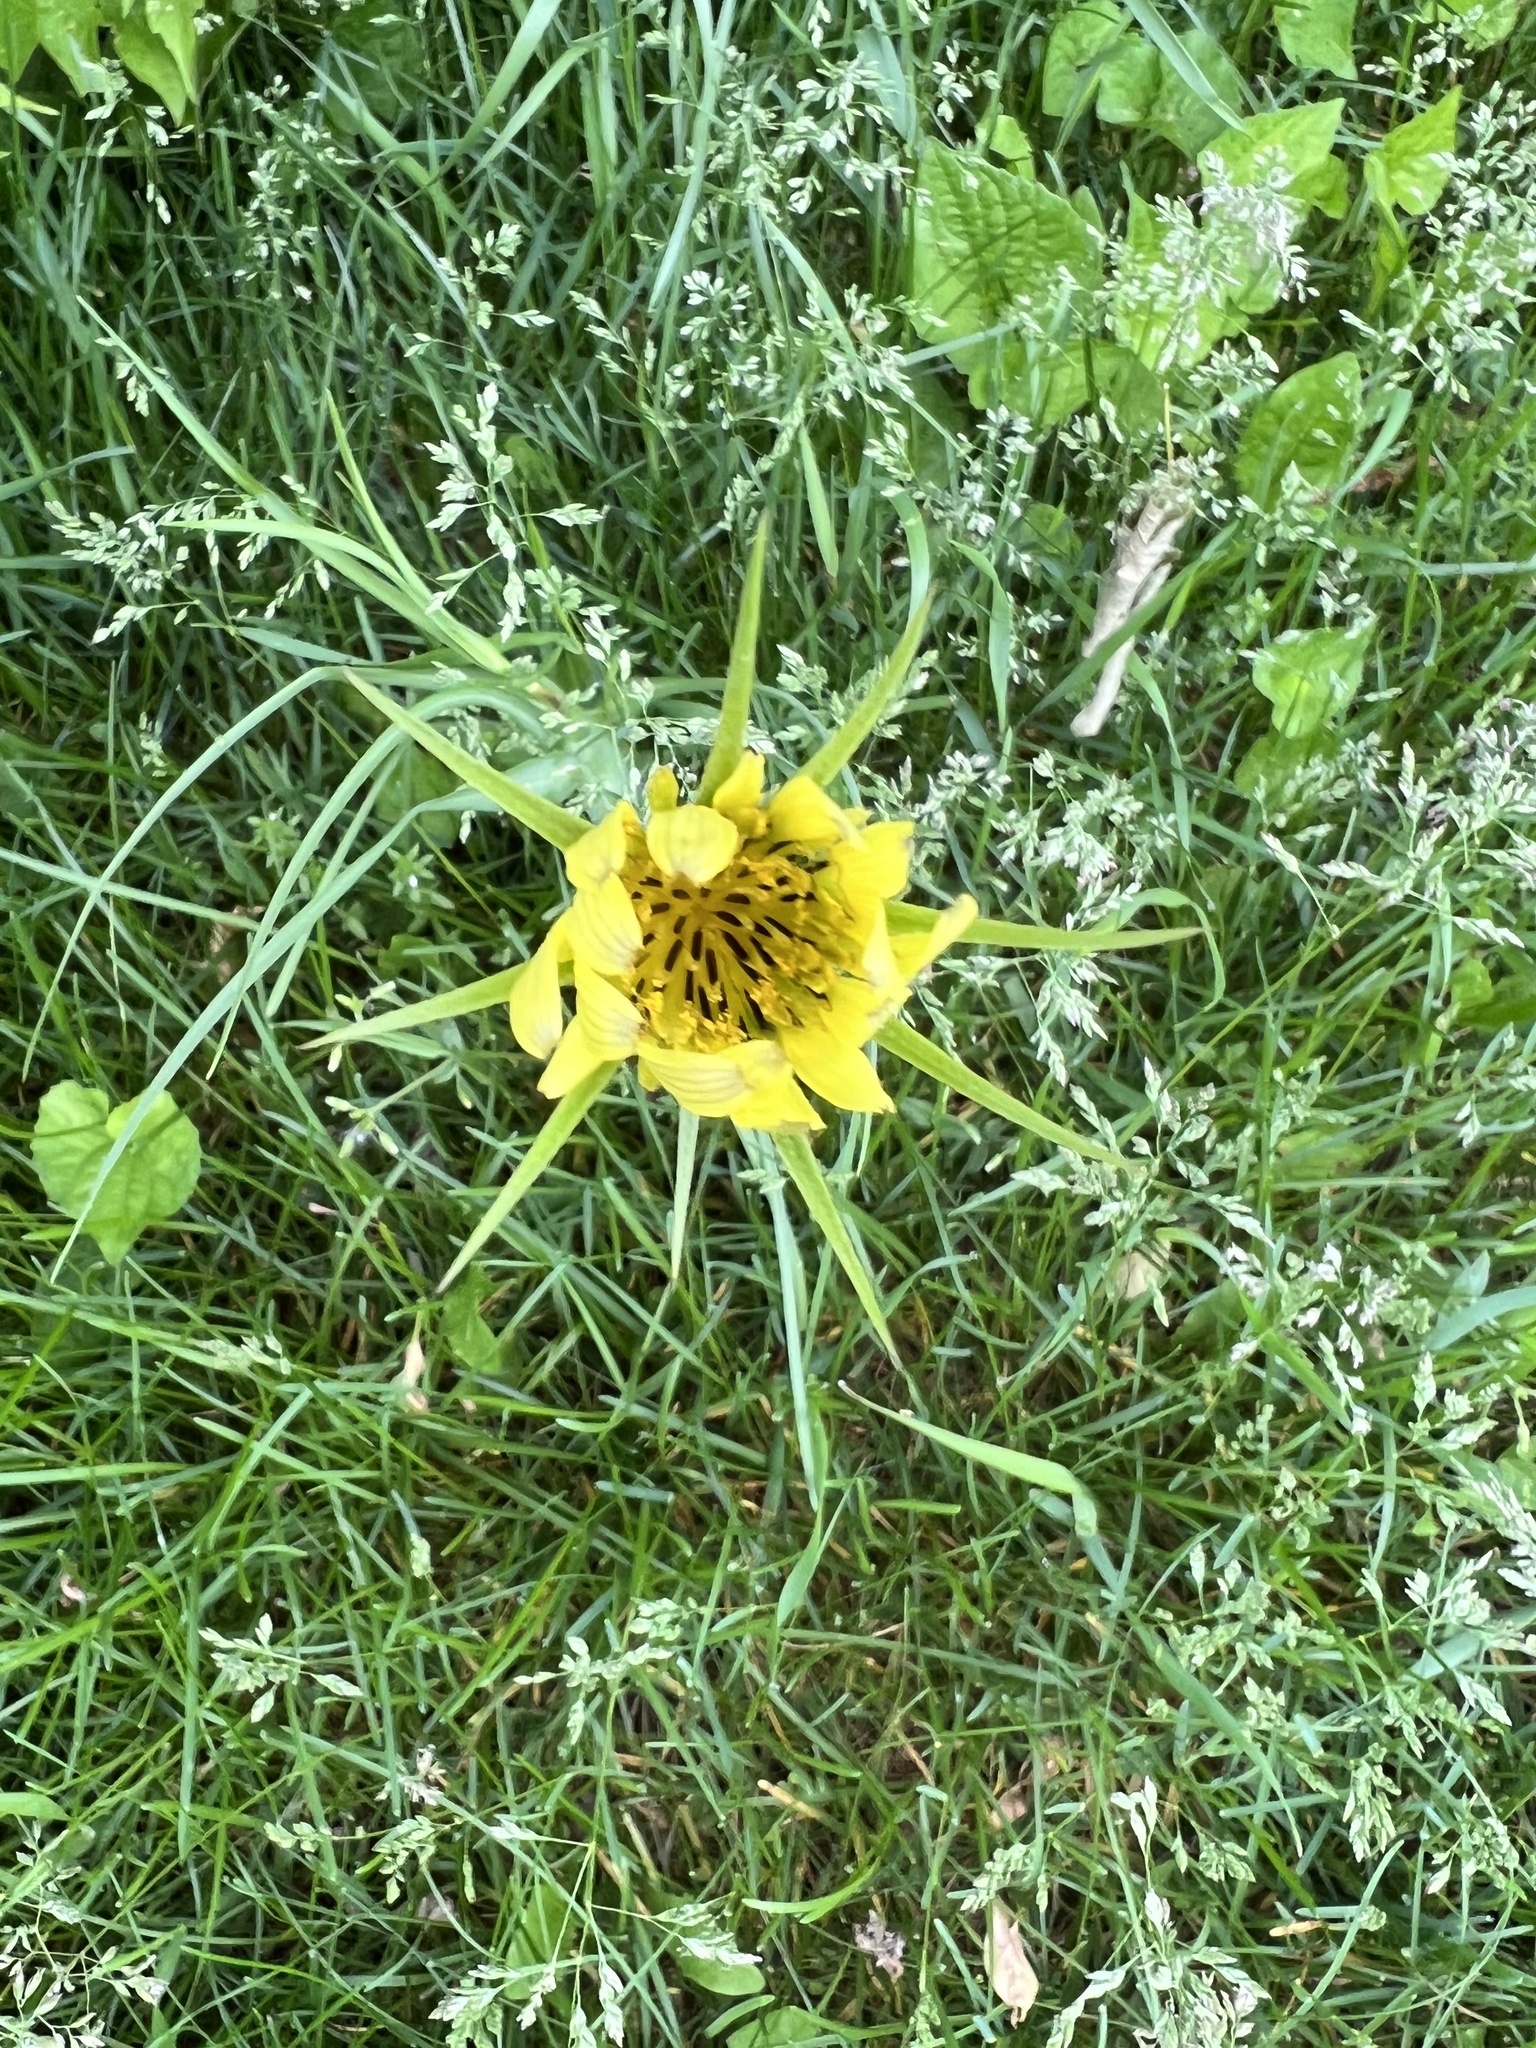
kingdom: Plantae
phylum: Tracheophyta
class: Magnoliopsida
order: Asterales
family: Asteraceae
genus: Tragopogon
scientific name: Tragopogon dubius
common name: Yellow salsify
